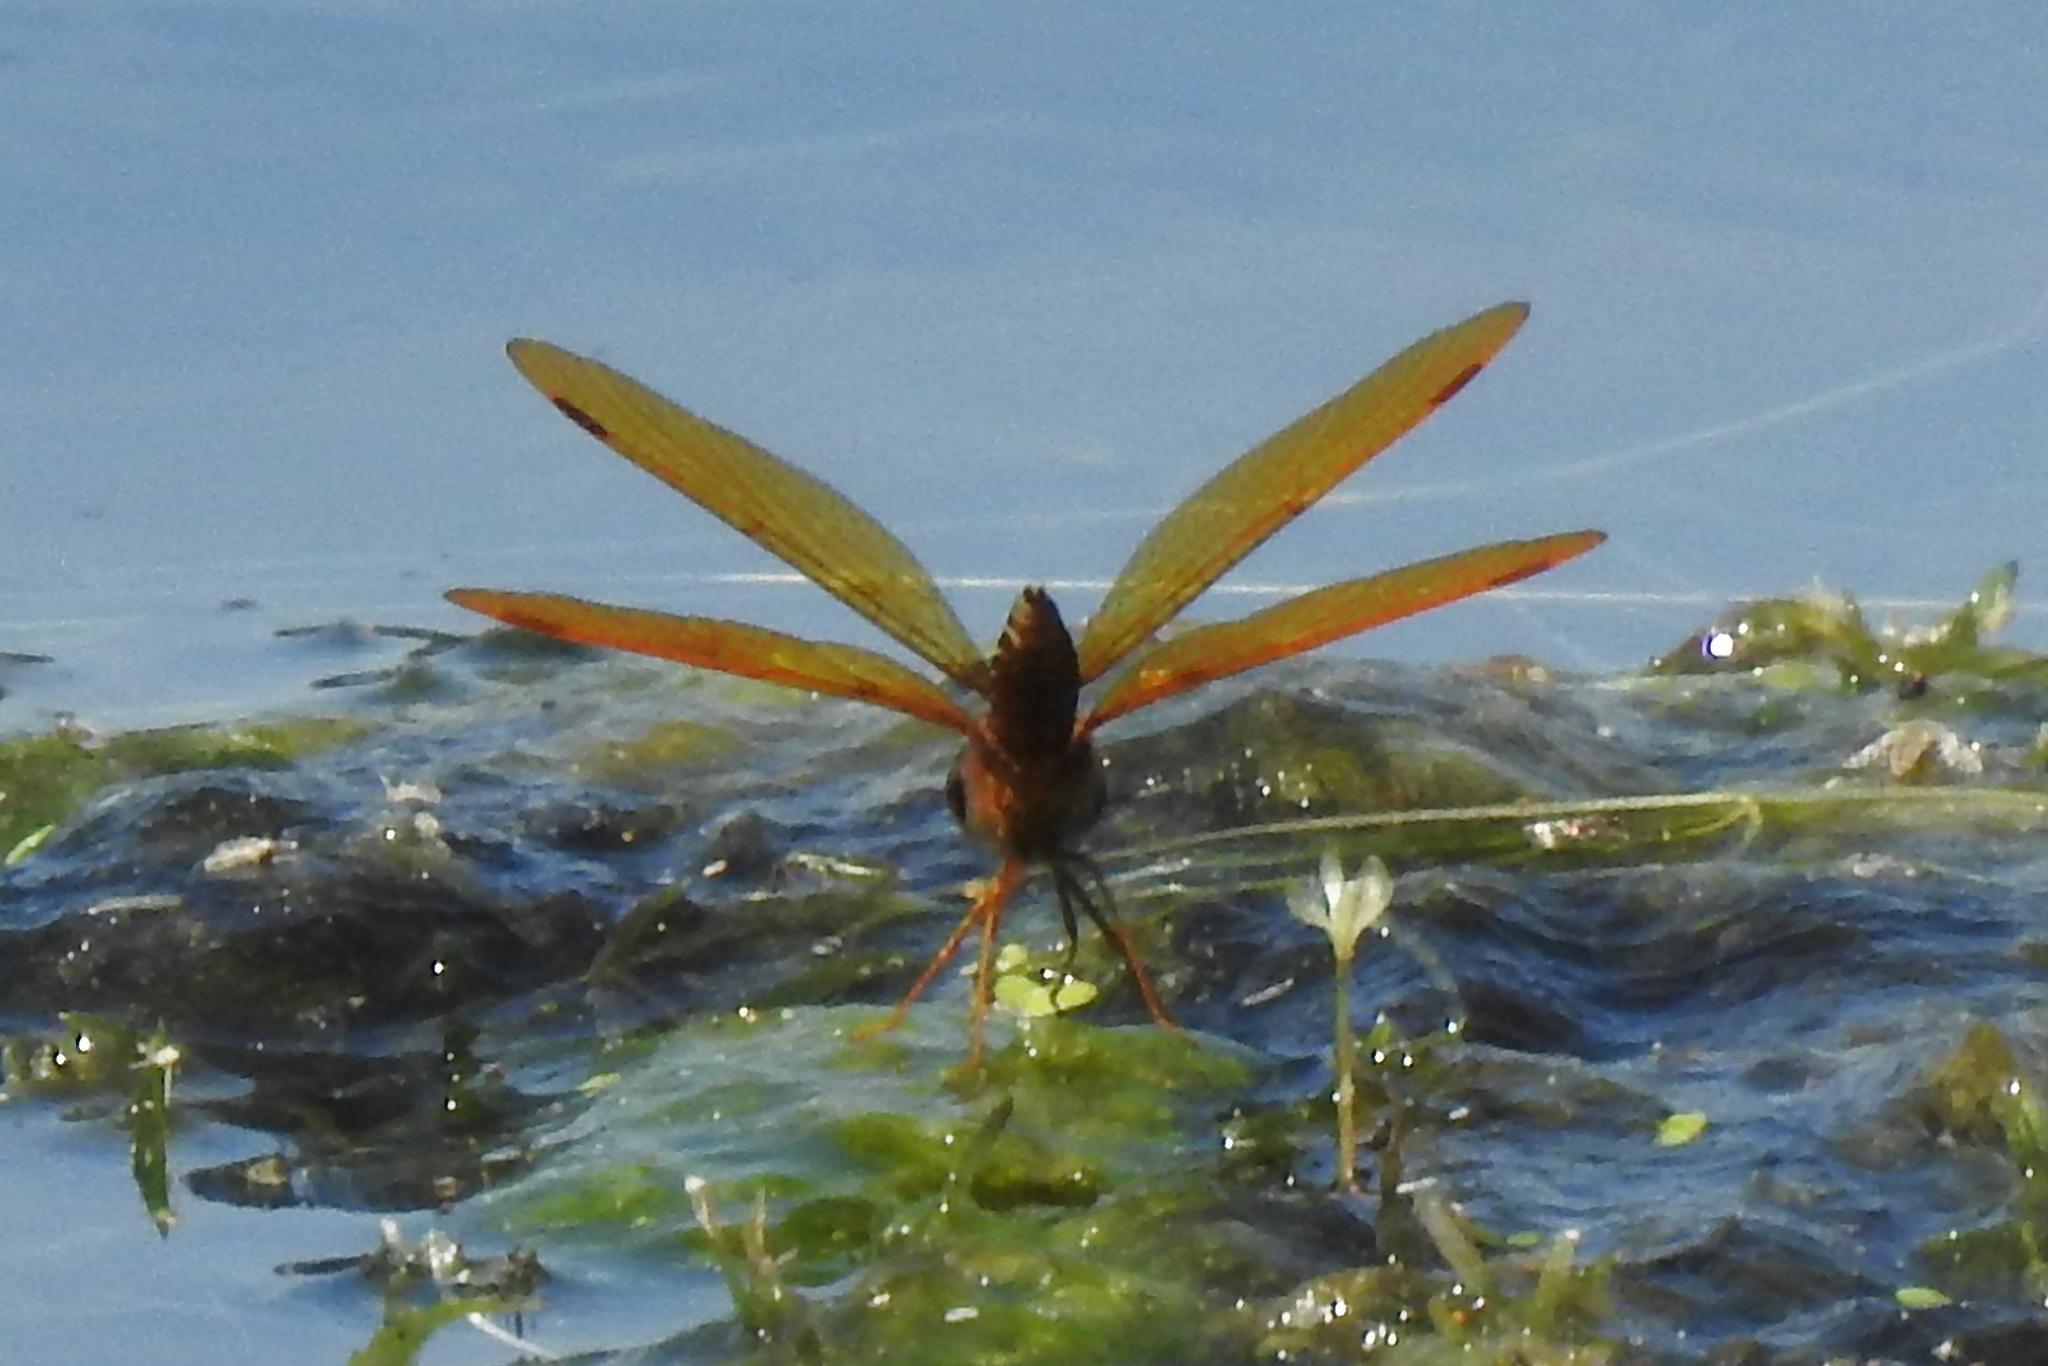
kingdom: Animalia
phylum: Arthropoda
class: Insecta
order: Odonata
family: Libellulidae
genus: Perithemis
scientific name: Perithemis tenera
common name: Eastern amberwing
